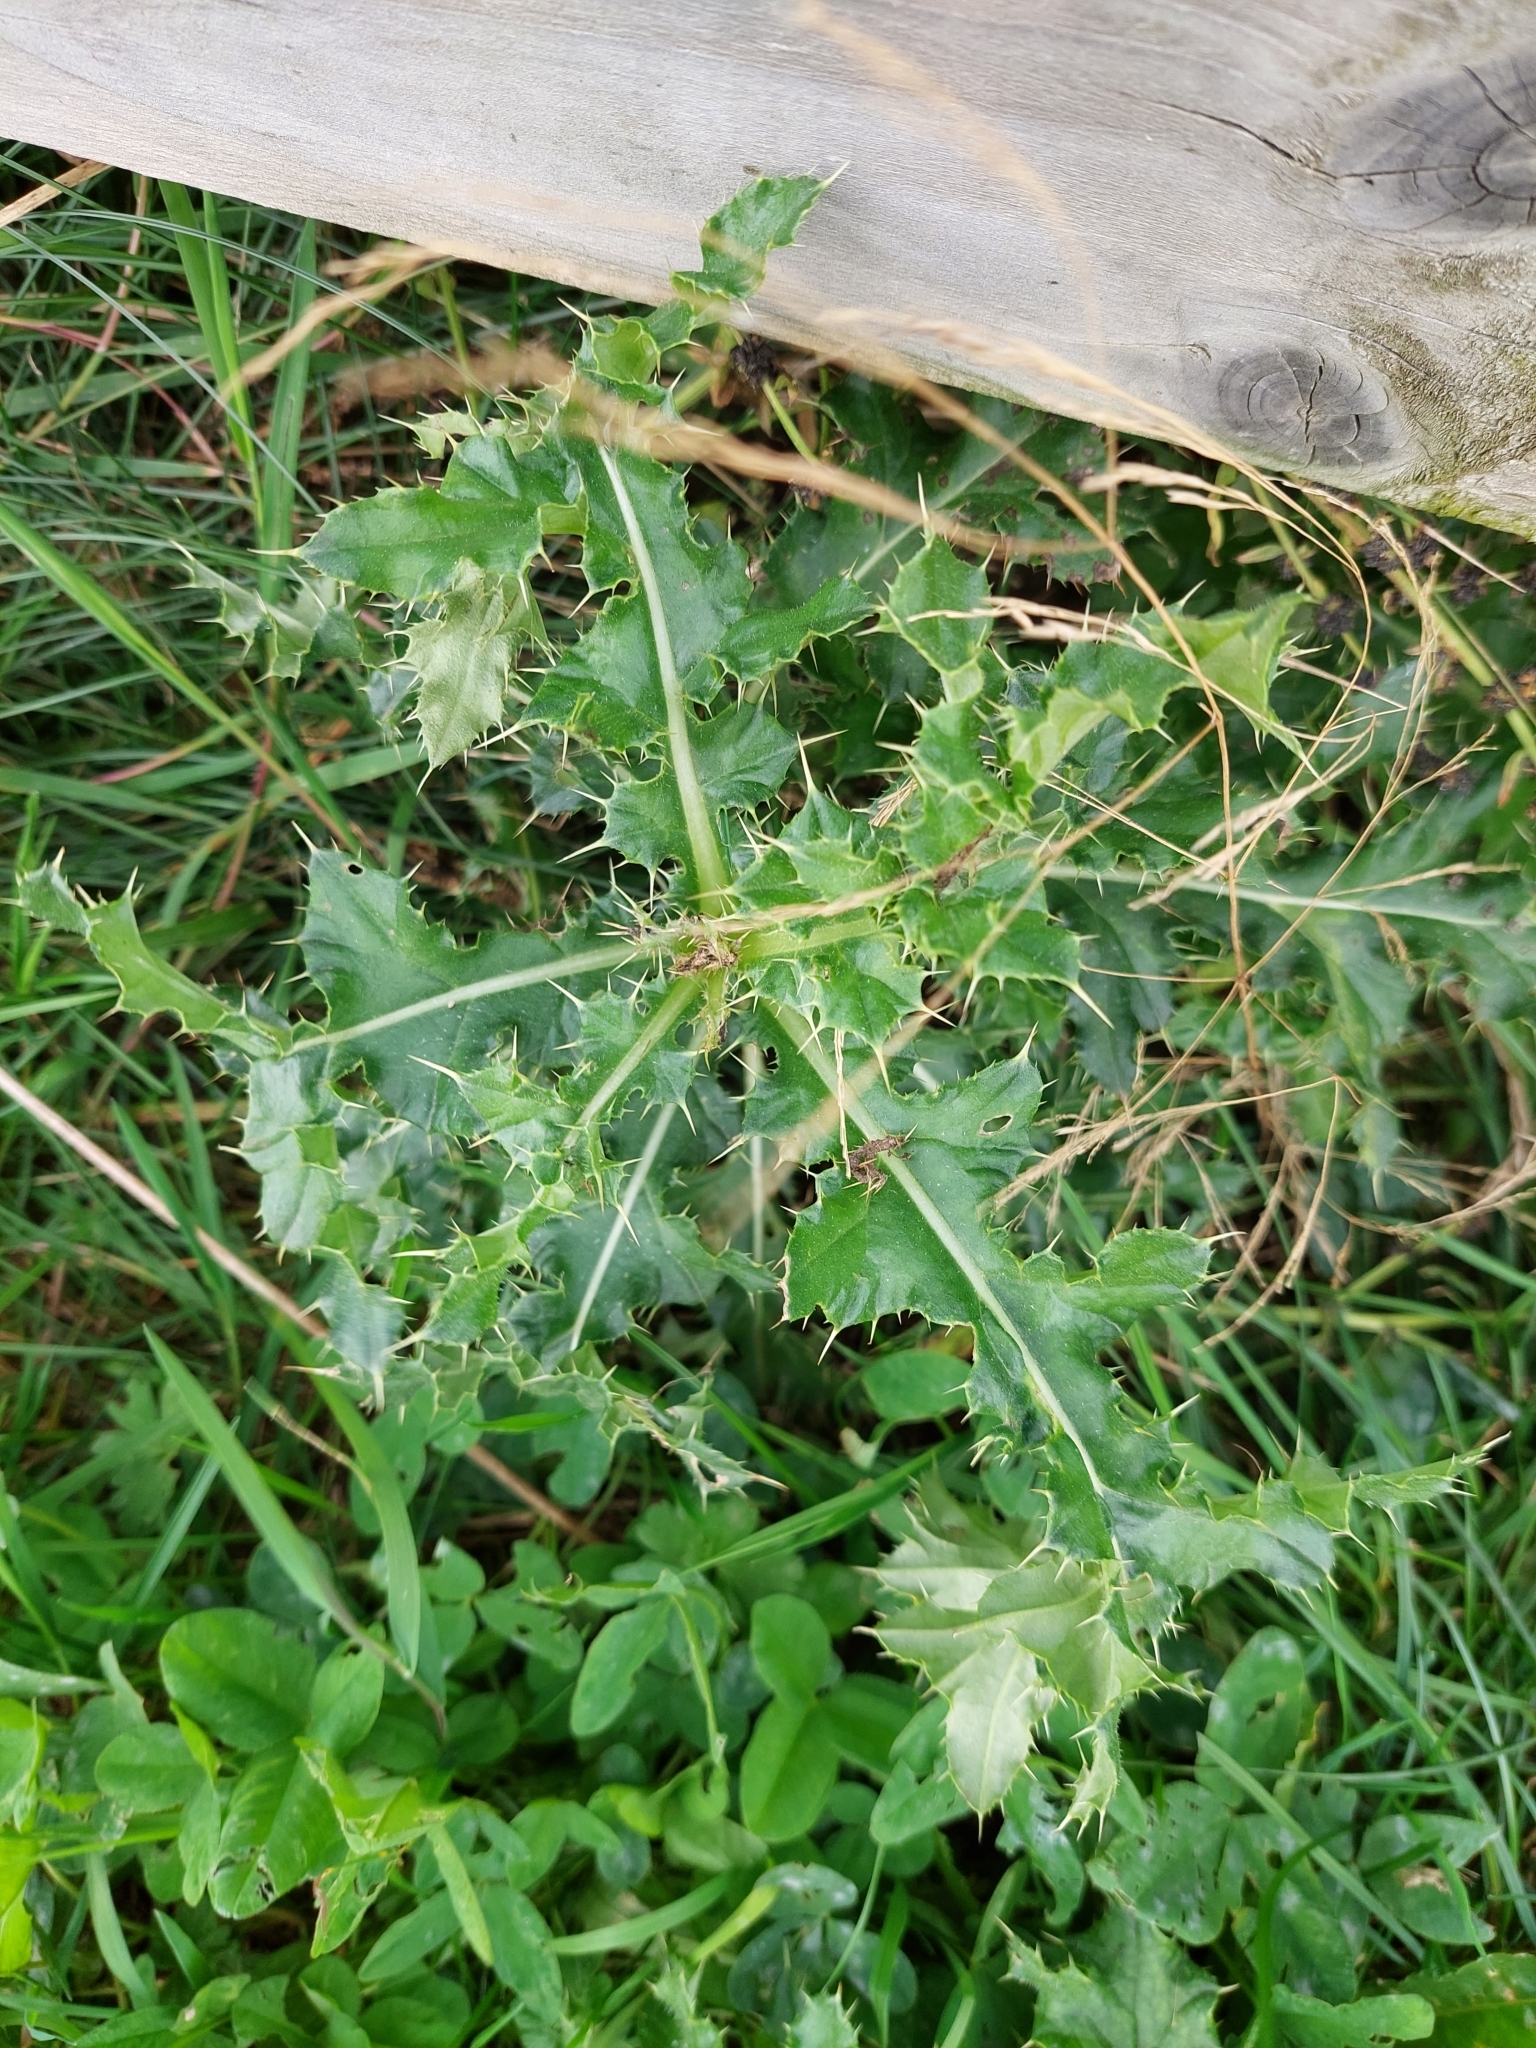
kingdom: Plantae
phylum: Tracheophyta
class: Magnoliopsida
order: Asterales
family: Asteraceae
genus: Cirsium
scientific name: Cirsium arvense
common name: Creeping thistle
